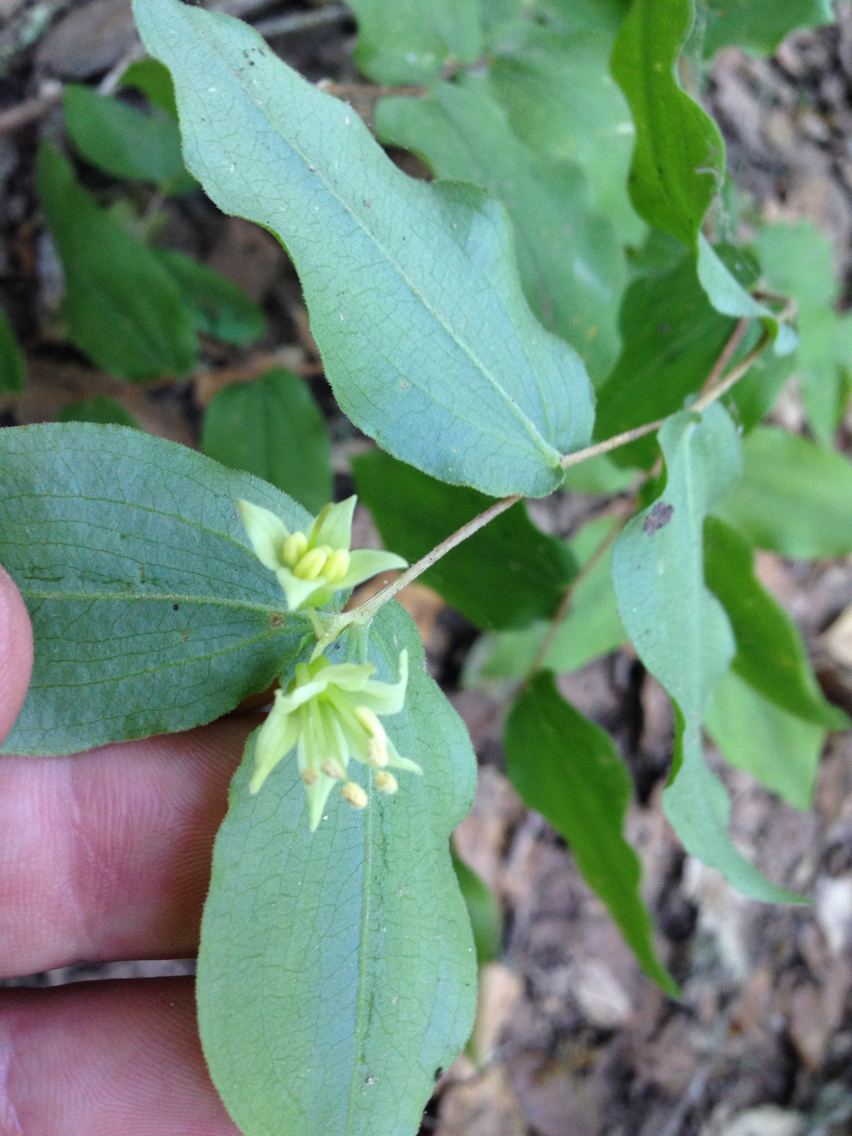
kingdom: Plantae
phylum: Tracheophyta
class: Liliopsida
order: Liliales
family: Liliaceae
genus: Prosartes
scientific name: Prosartes hookeri
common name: Fairy-bells
